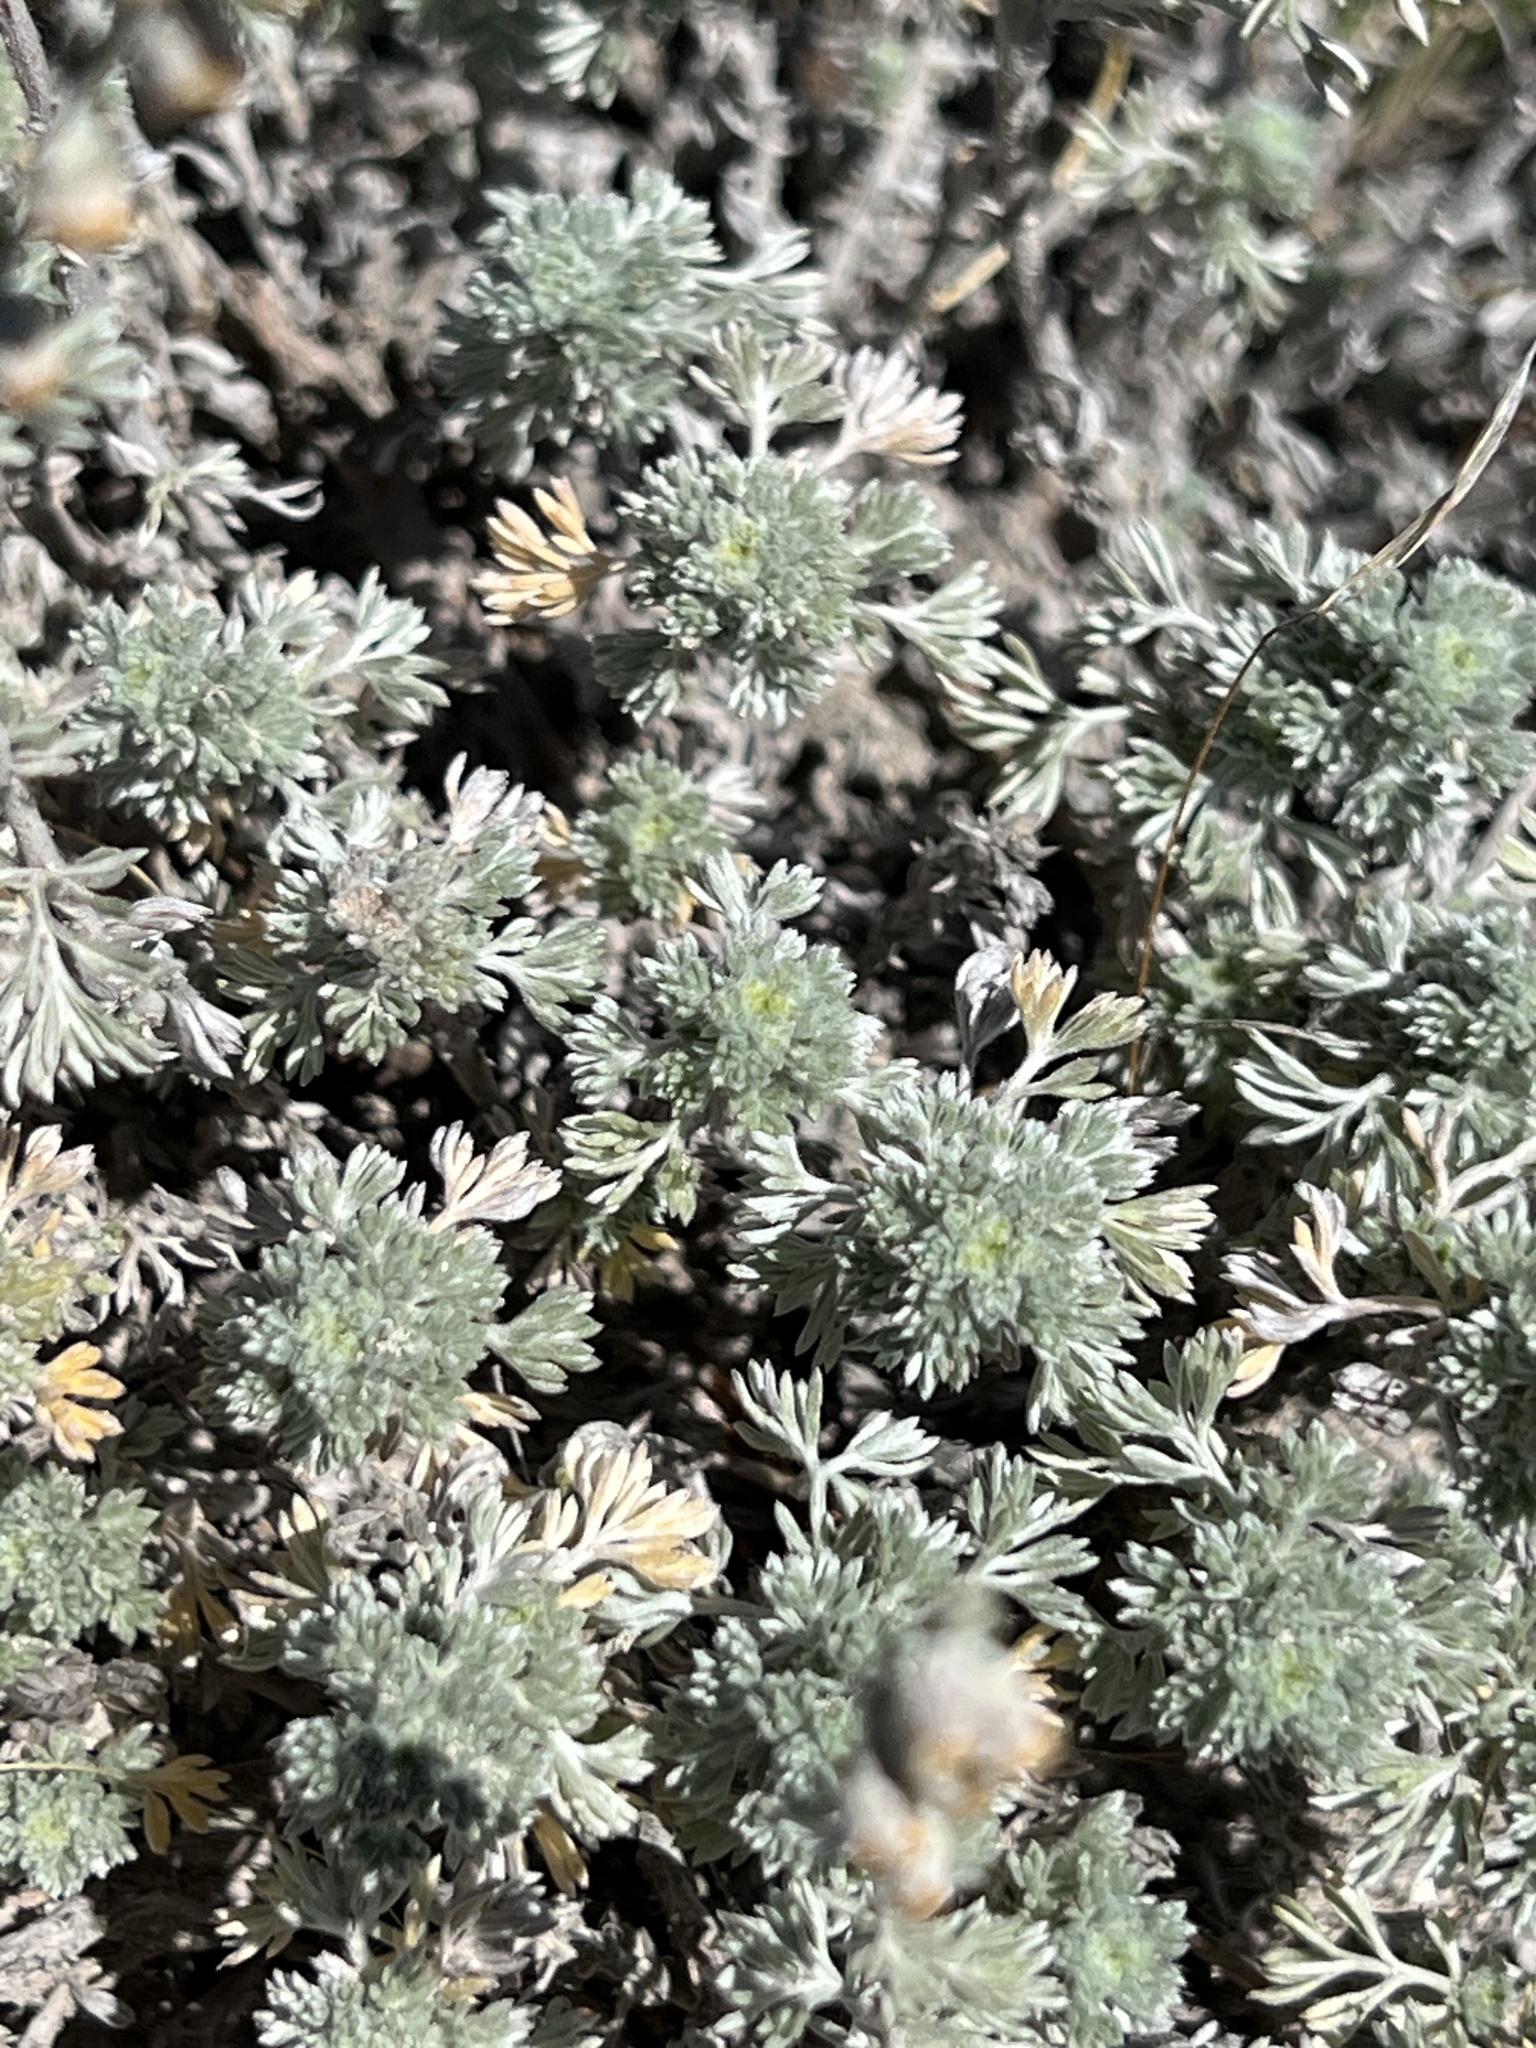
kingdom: Plantae
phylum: Tracheophyta
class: Magnoliopsida
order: Asterales
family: Asteraceae
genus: Artemisia
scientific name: Artemisia frigida
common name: Prairie sagewort
